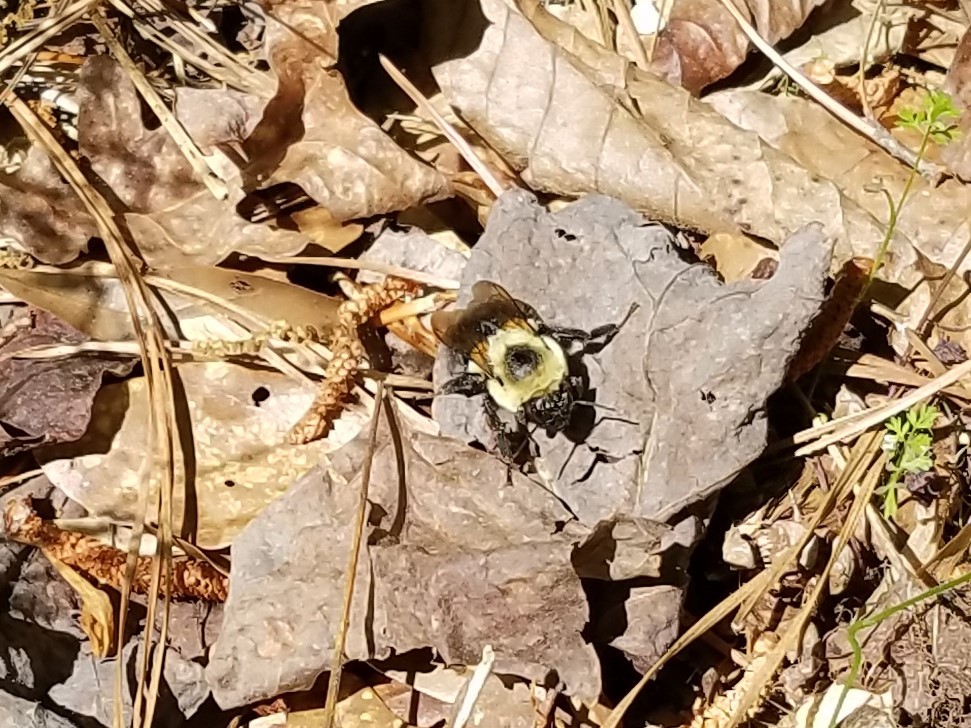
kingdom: Animalia
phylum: Arthropoda
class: Insecta
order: Hymenoptera
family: Apidae
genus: Bombus
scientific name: Bombus impatiens
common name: Common eastern bumble bee
